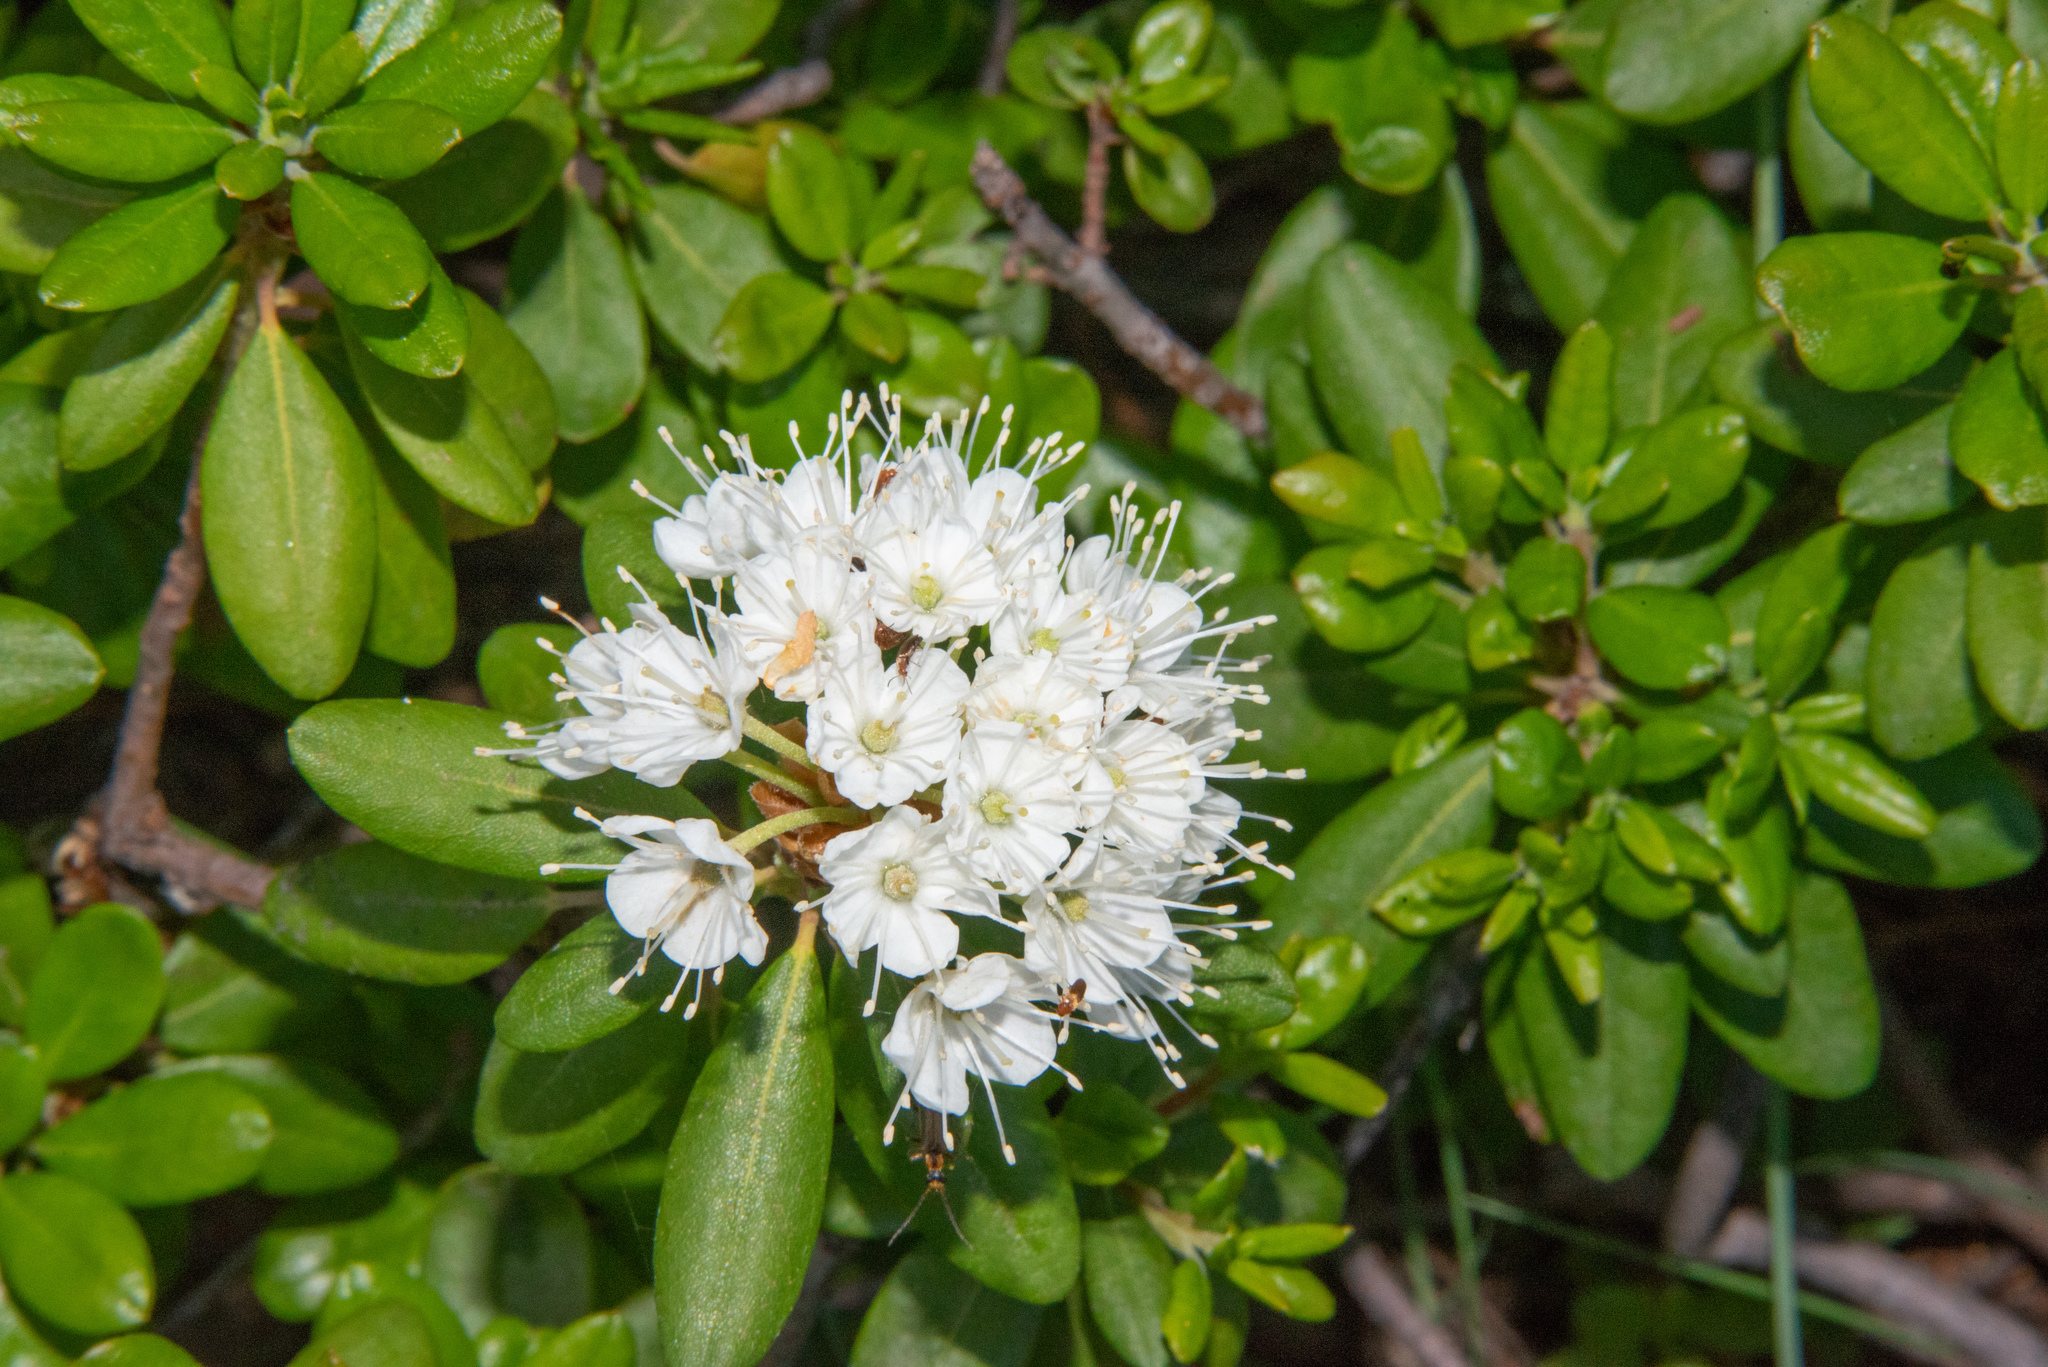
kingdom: Plantae
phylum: Tracheophyta
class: Magnoliopsida
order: Ericales
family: Ericaceae
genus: Rhododendron
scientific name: Rhododendron columbianum
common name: Western labrador tea
